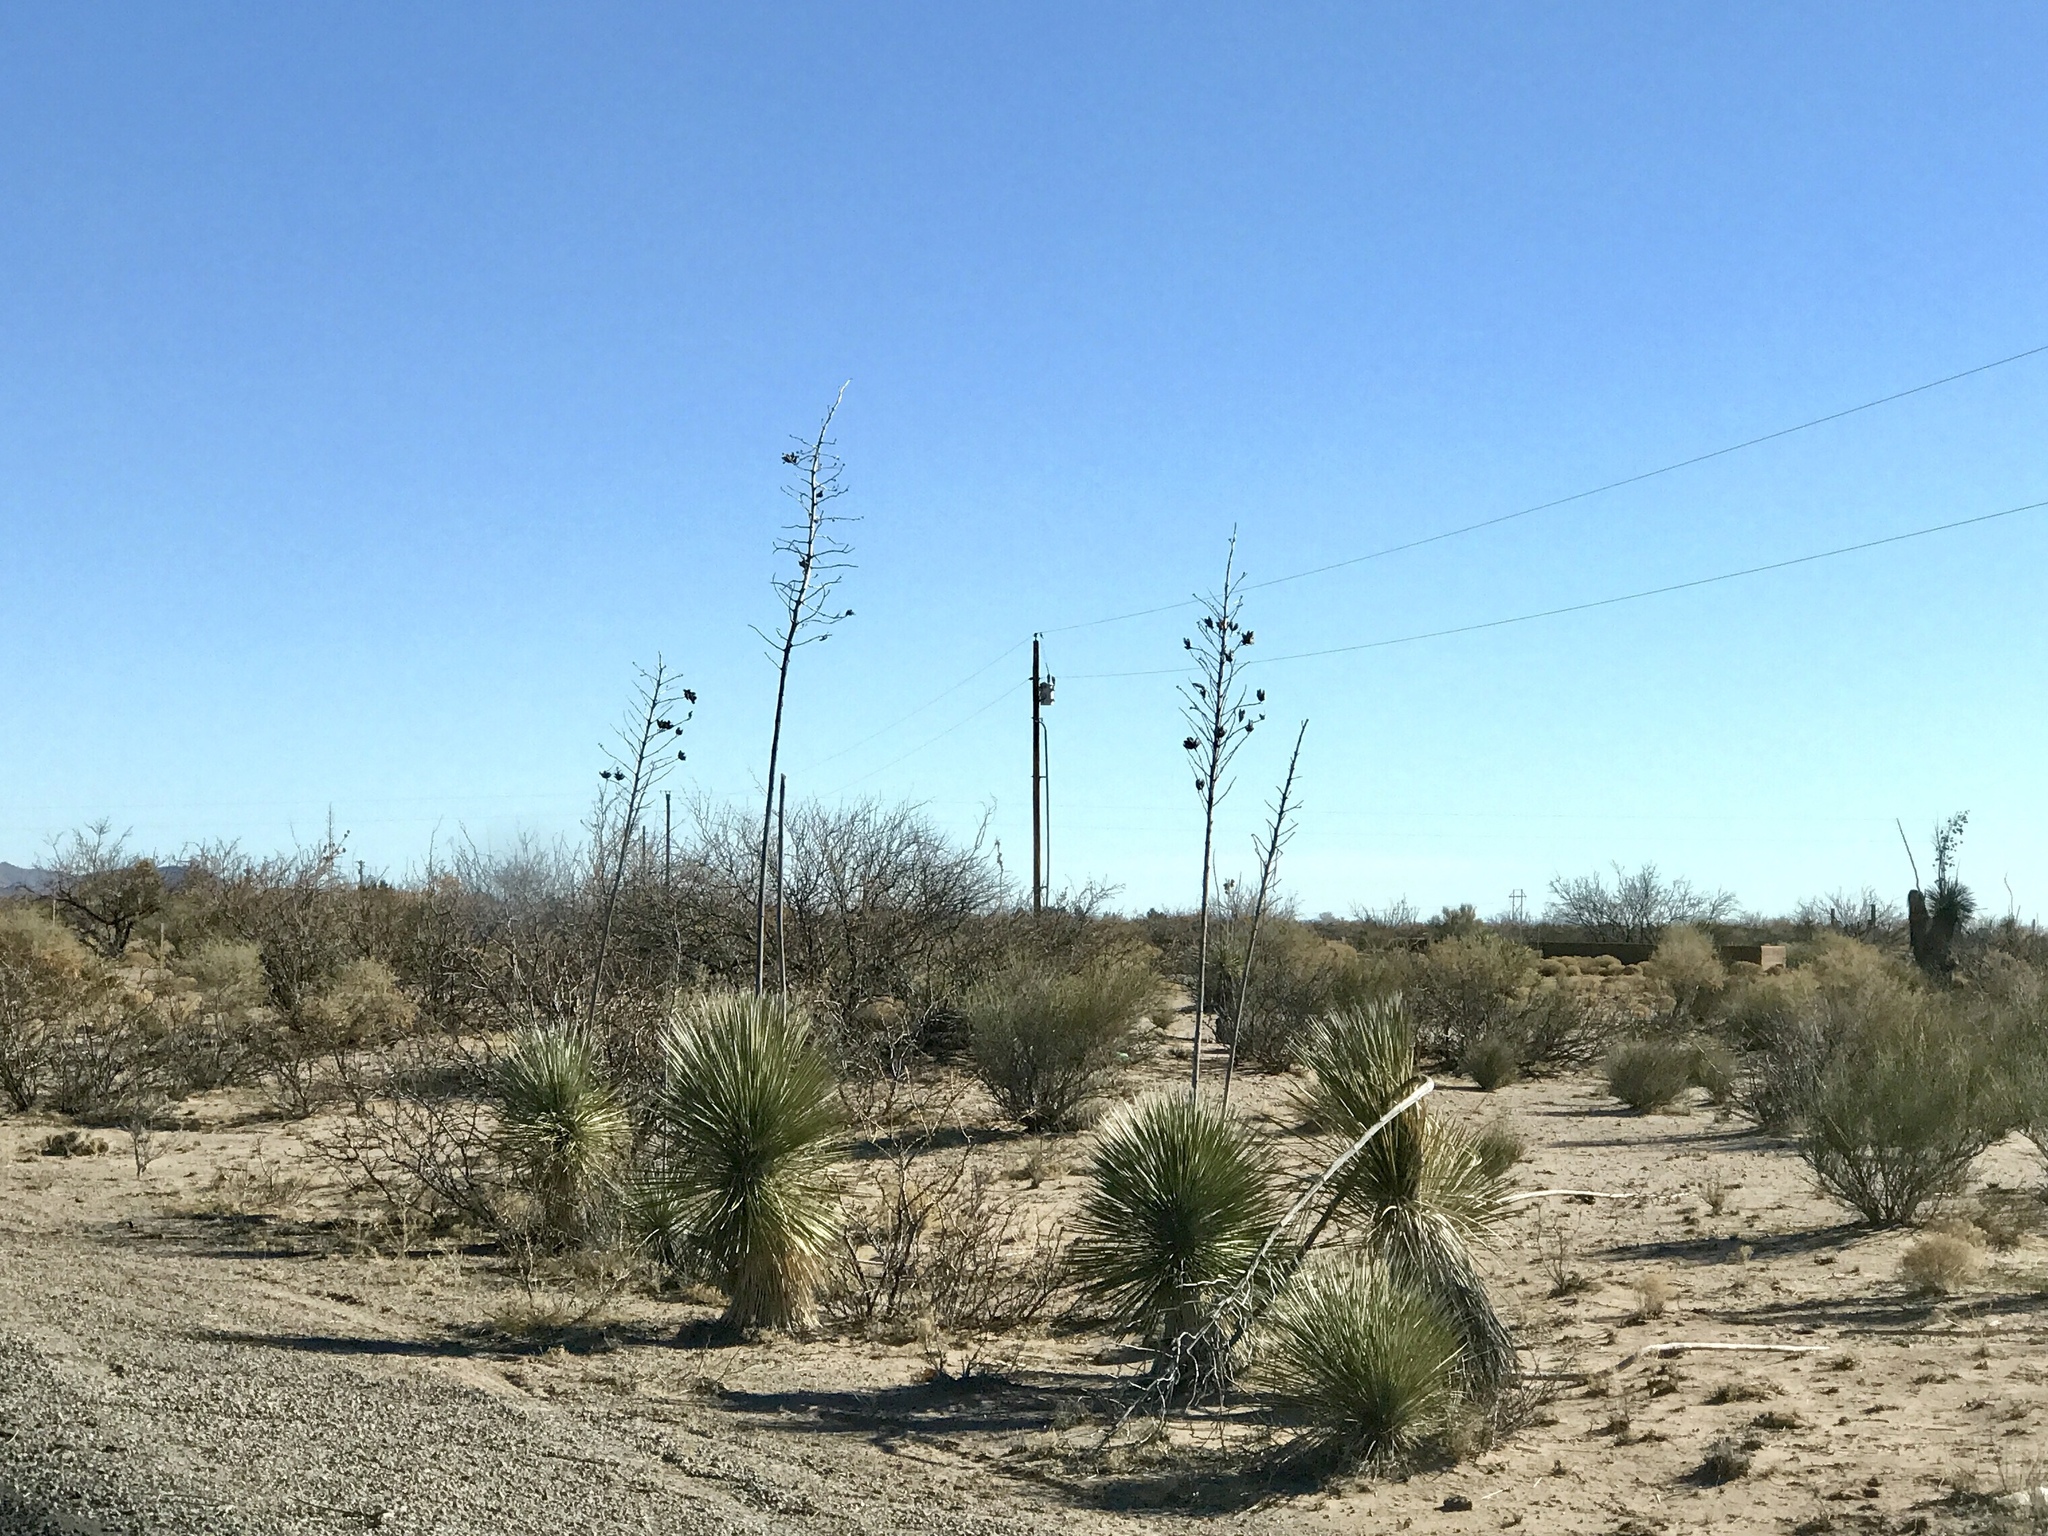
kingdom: Plantae
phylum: Tracheophyta
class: Liliopsida
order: Asparagales
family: Asparagaceae
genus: Yucca
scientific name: Yucca elata
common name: Palmella
